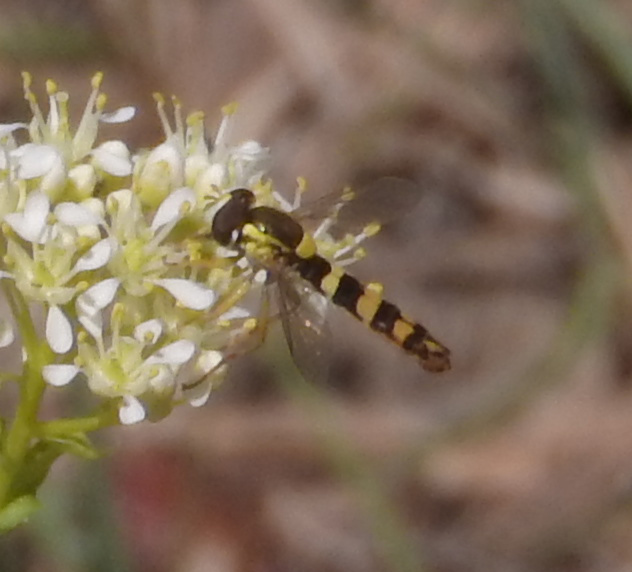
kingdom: Animalia
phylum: Arthropoda
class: Insecta
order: Diptera
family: Syrphidae
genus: Sphaerophoria
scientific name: Sphaerophoria scripta
